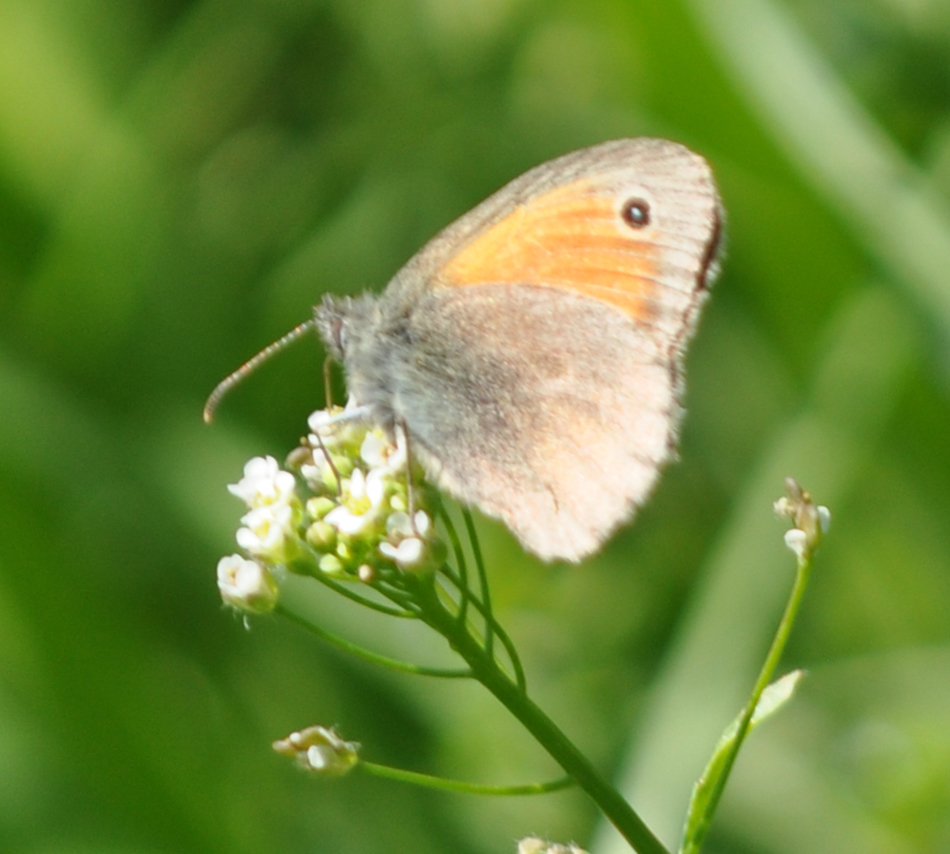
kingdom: Animalia
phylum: Arthropoda
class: Insecta
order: Lepidoptera
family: Nymphalidae
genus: Coenonympha
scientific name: Coenonympha pamphilus
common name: Small heath
